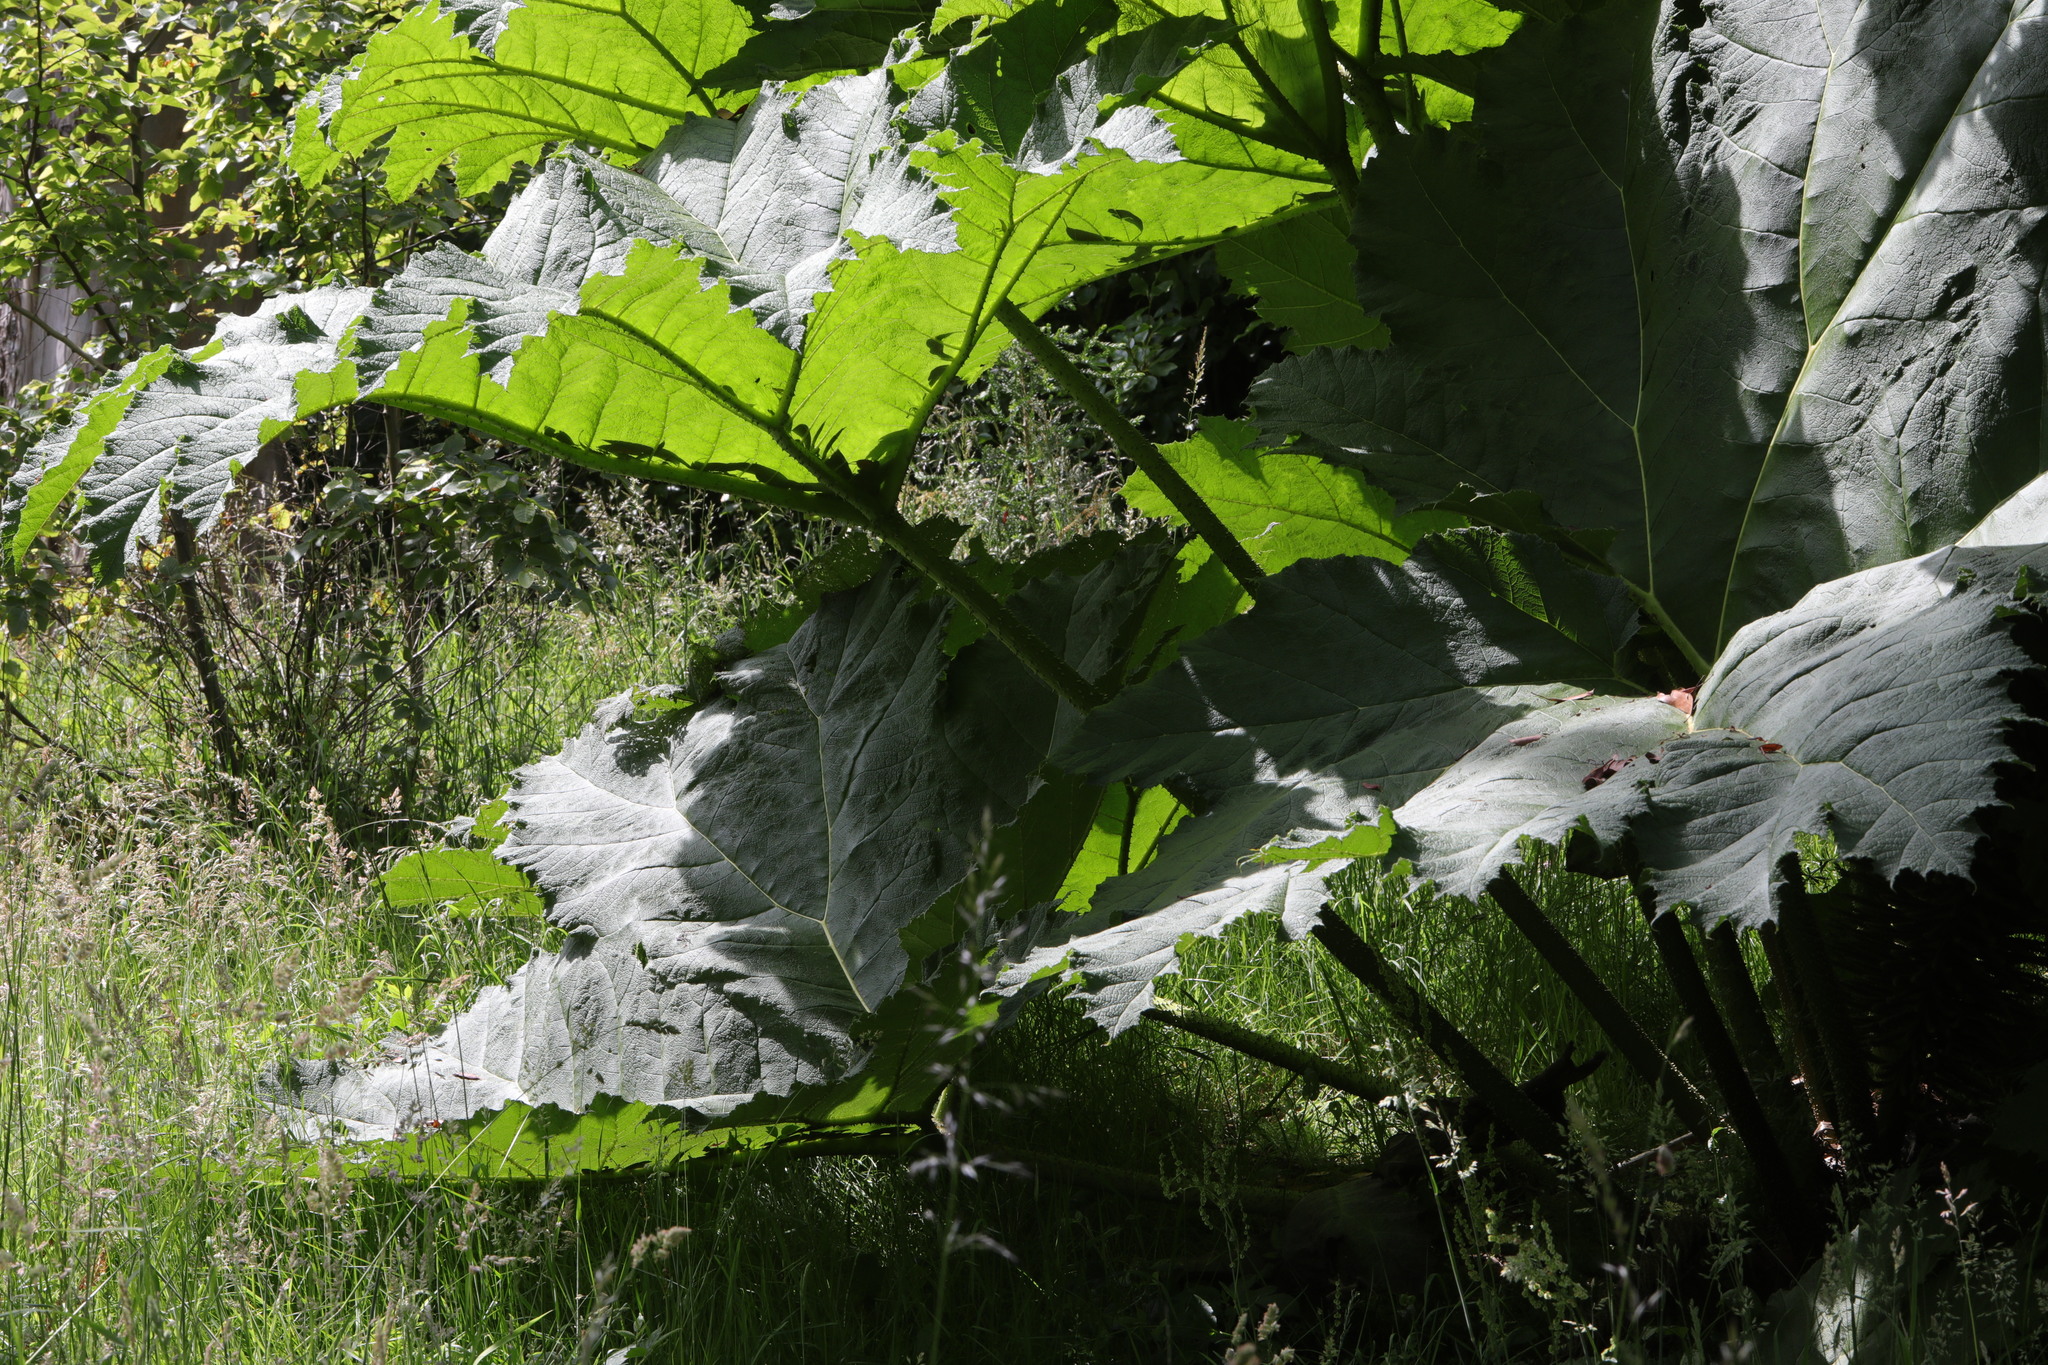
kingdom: Plantae
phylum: Tracheophyta
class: Magnoliopsida
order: Gunnerales
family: Gunneraceae
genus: Gunnera
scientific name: Gunnera tinctoria
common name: Giant-rhubarb
